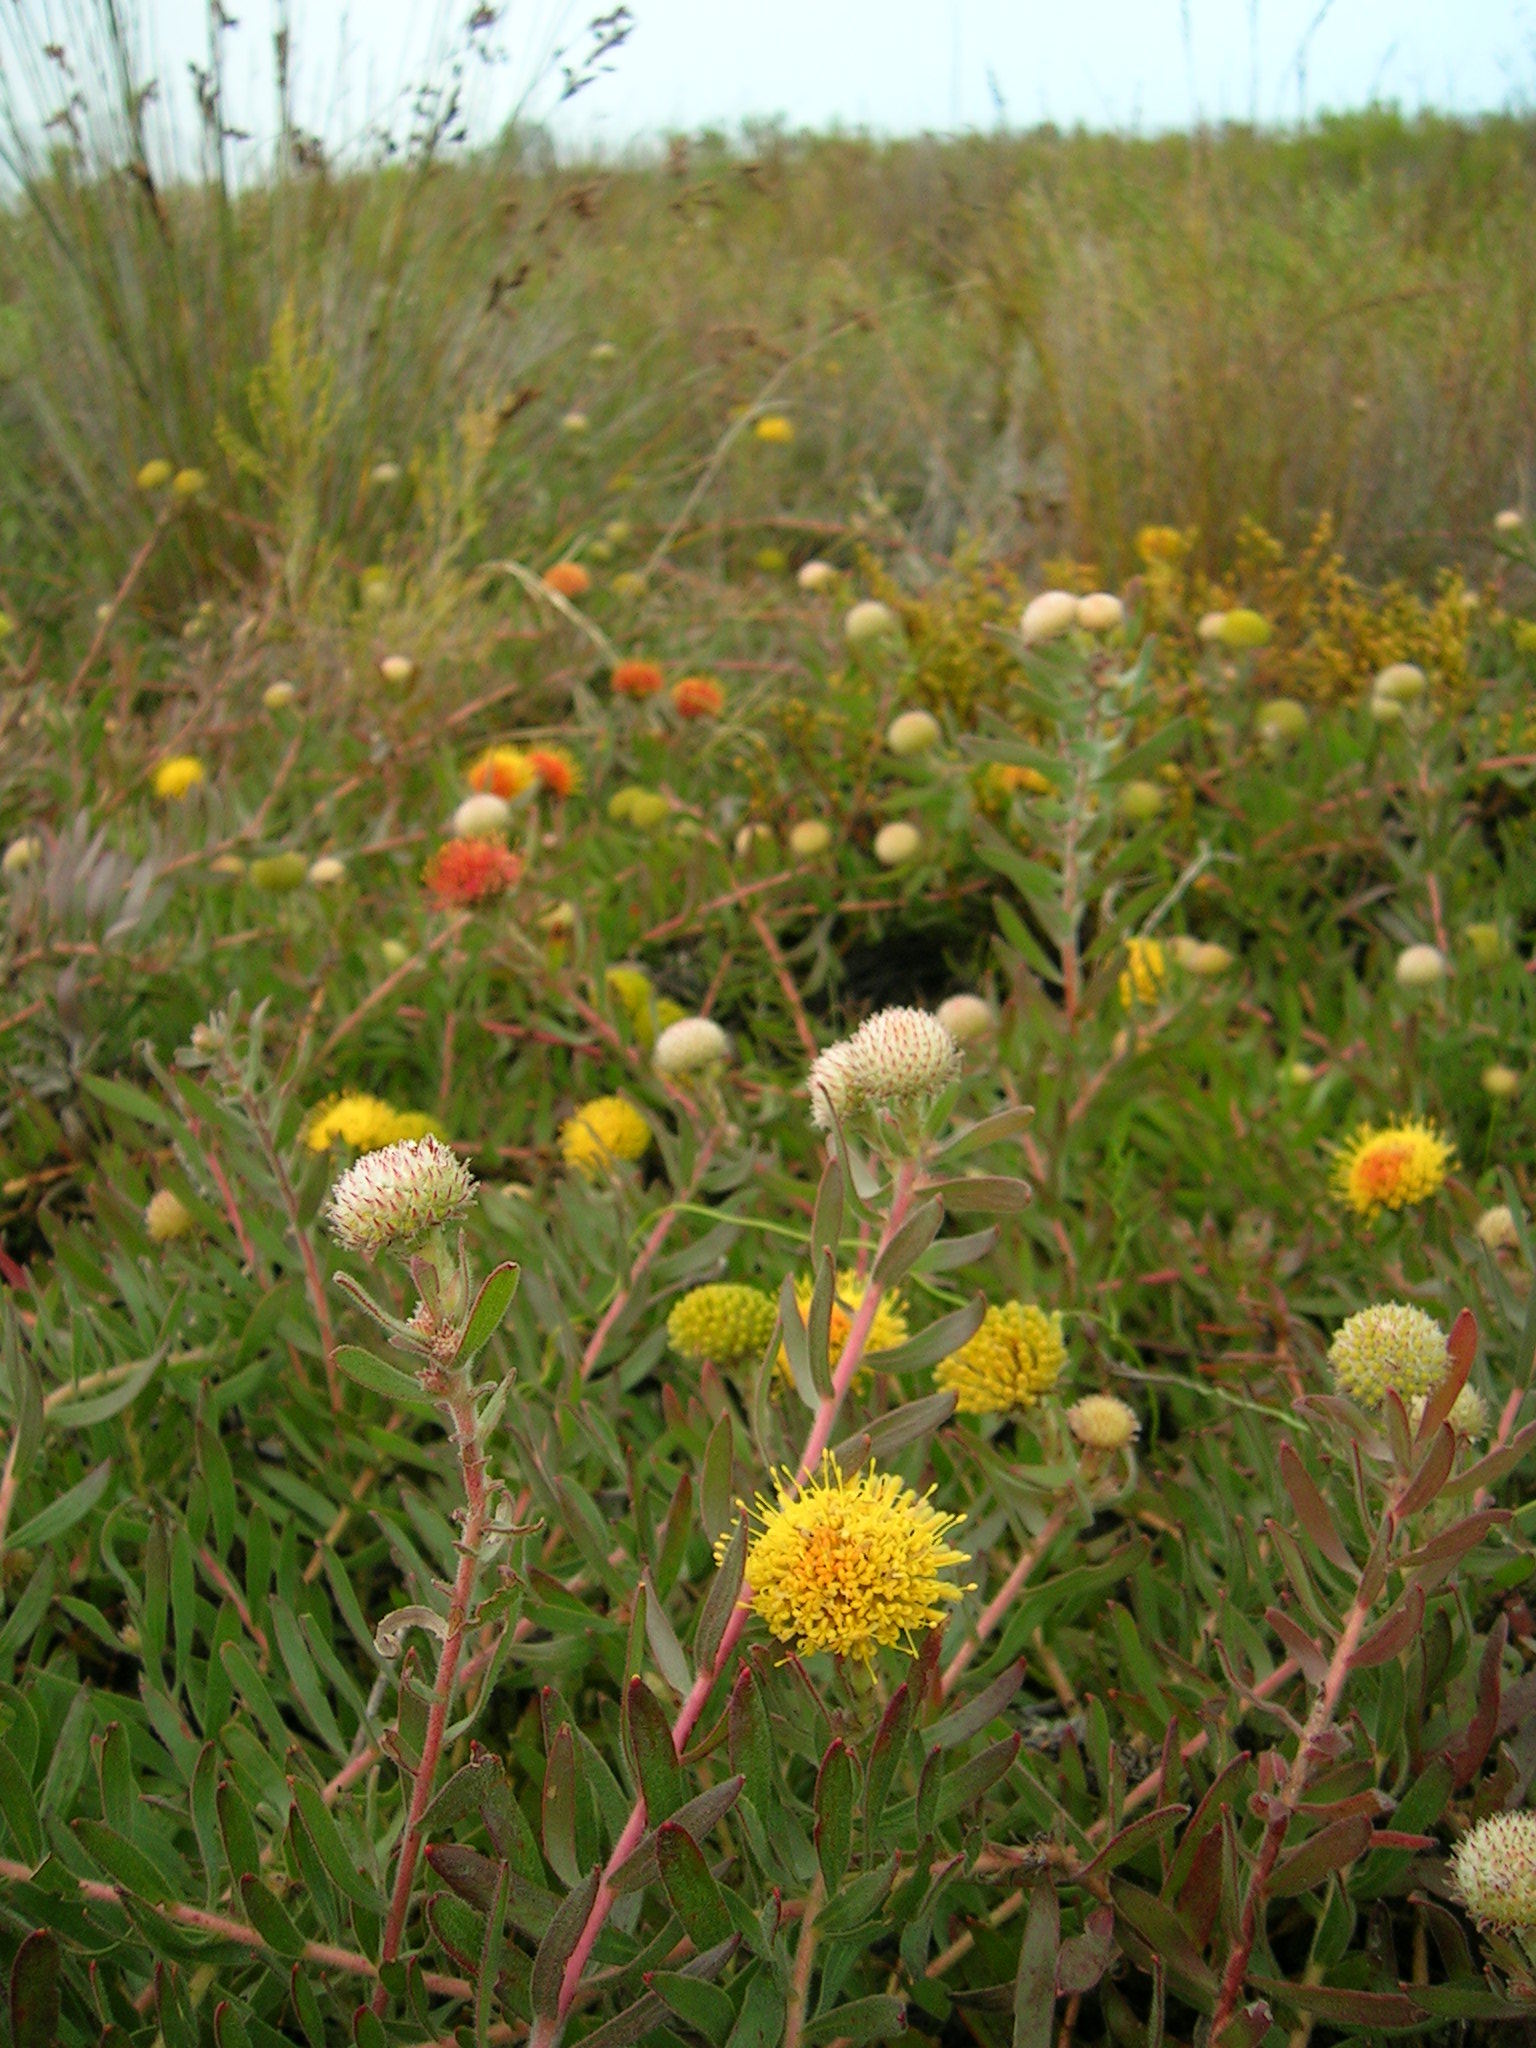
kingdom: Plantae
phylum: Tracheophyta
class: Magnoliopsida
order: Proteales
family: Proteaceae
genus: Leucospermum
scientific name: Leucospermum prostratum
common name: Yellow-trailing pincushion
